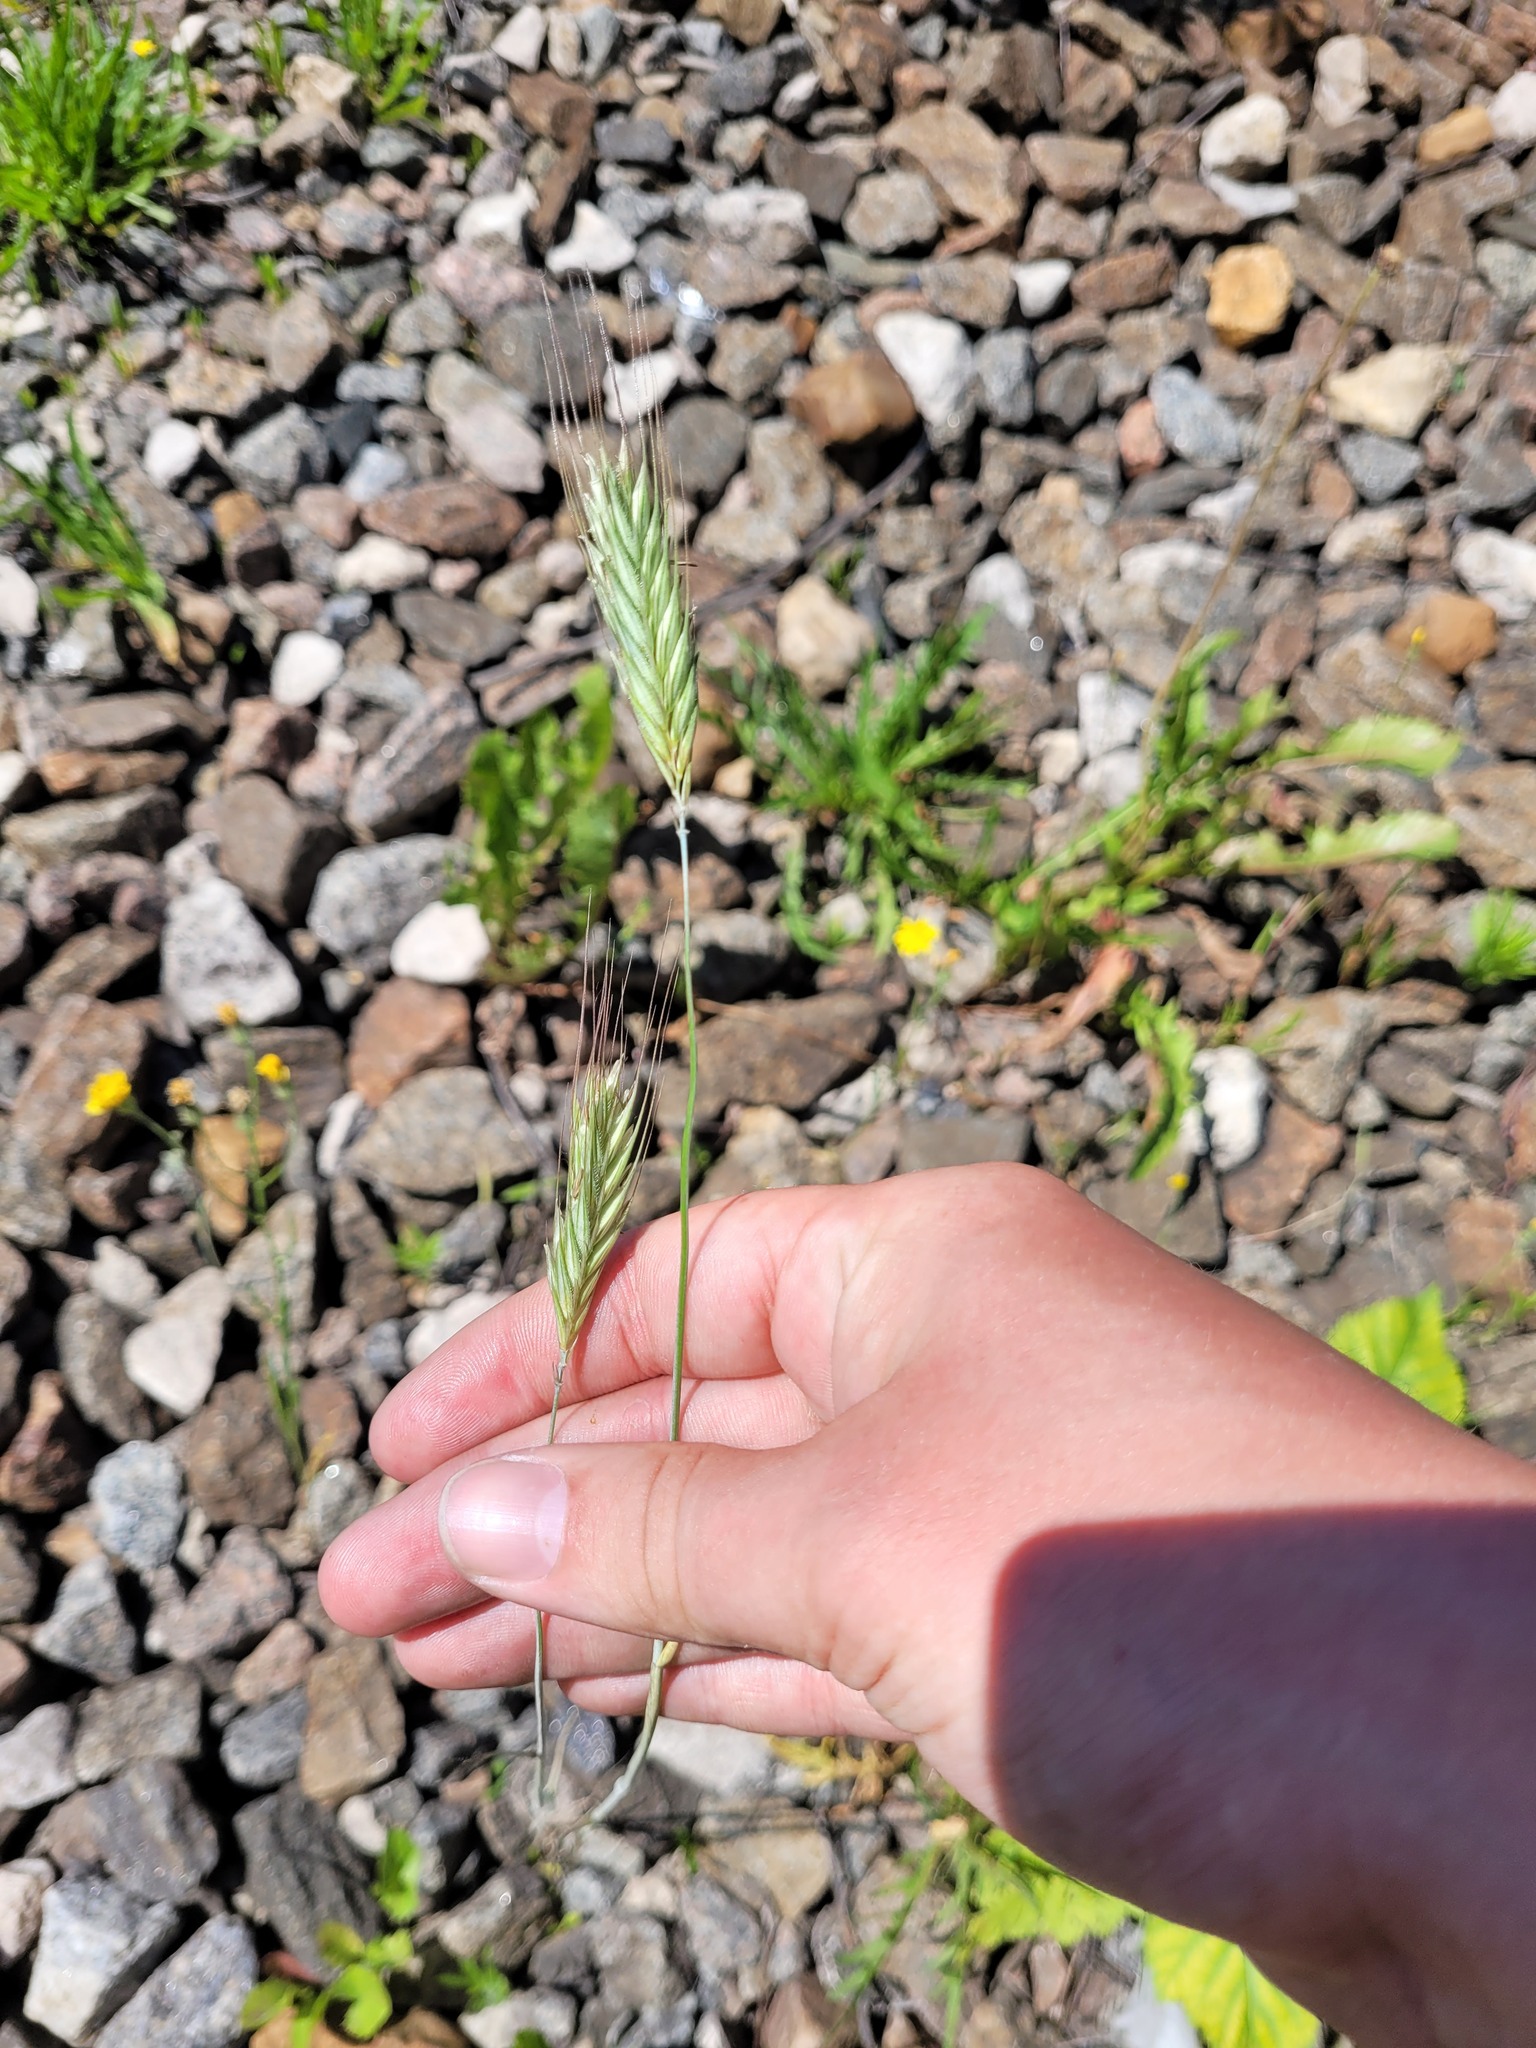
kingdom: Plantae
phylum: Tracheophyta
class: Liliopsida
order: Poales
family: Poaceae
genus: Secale
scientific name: Secale cereale
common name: Rye
